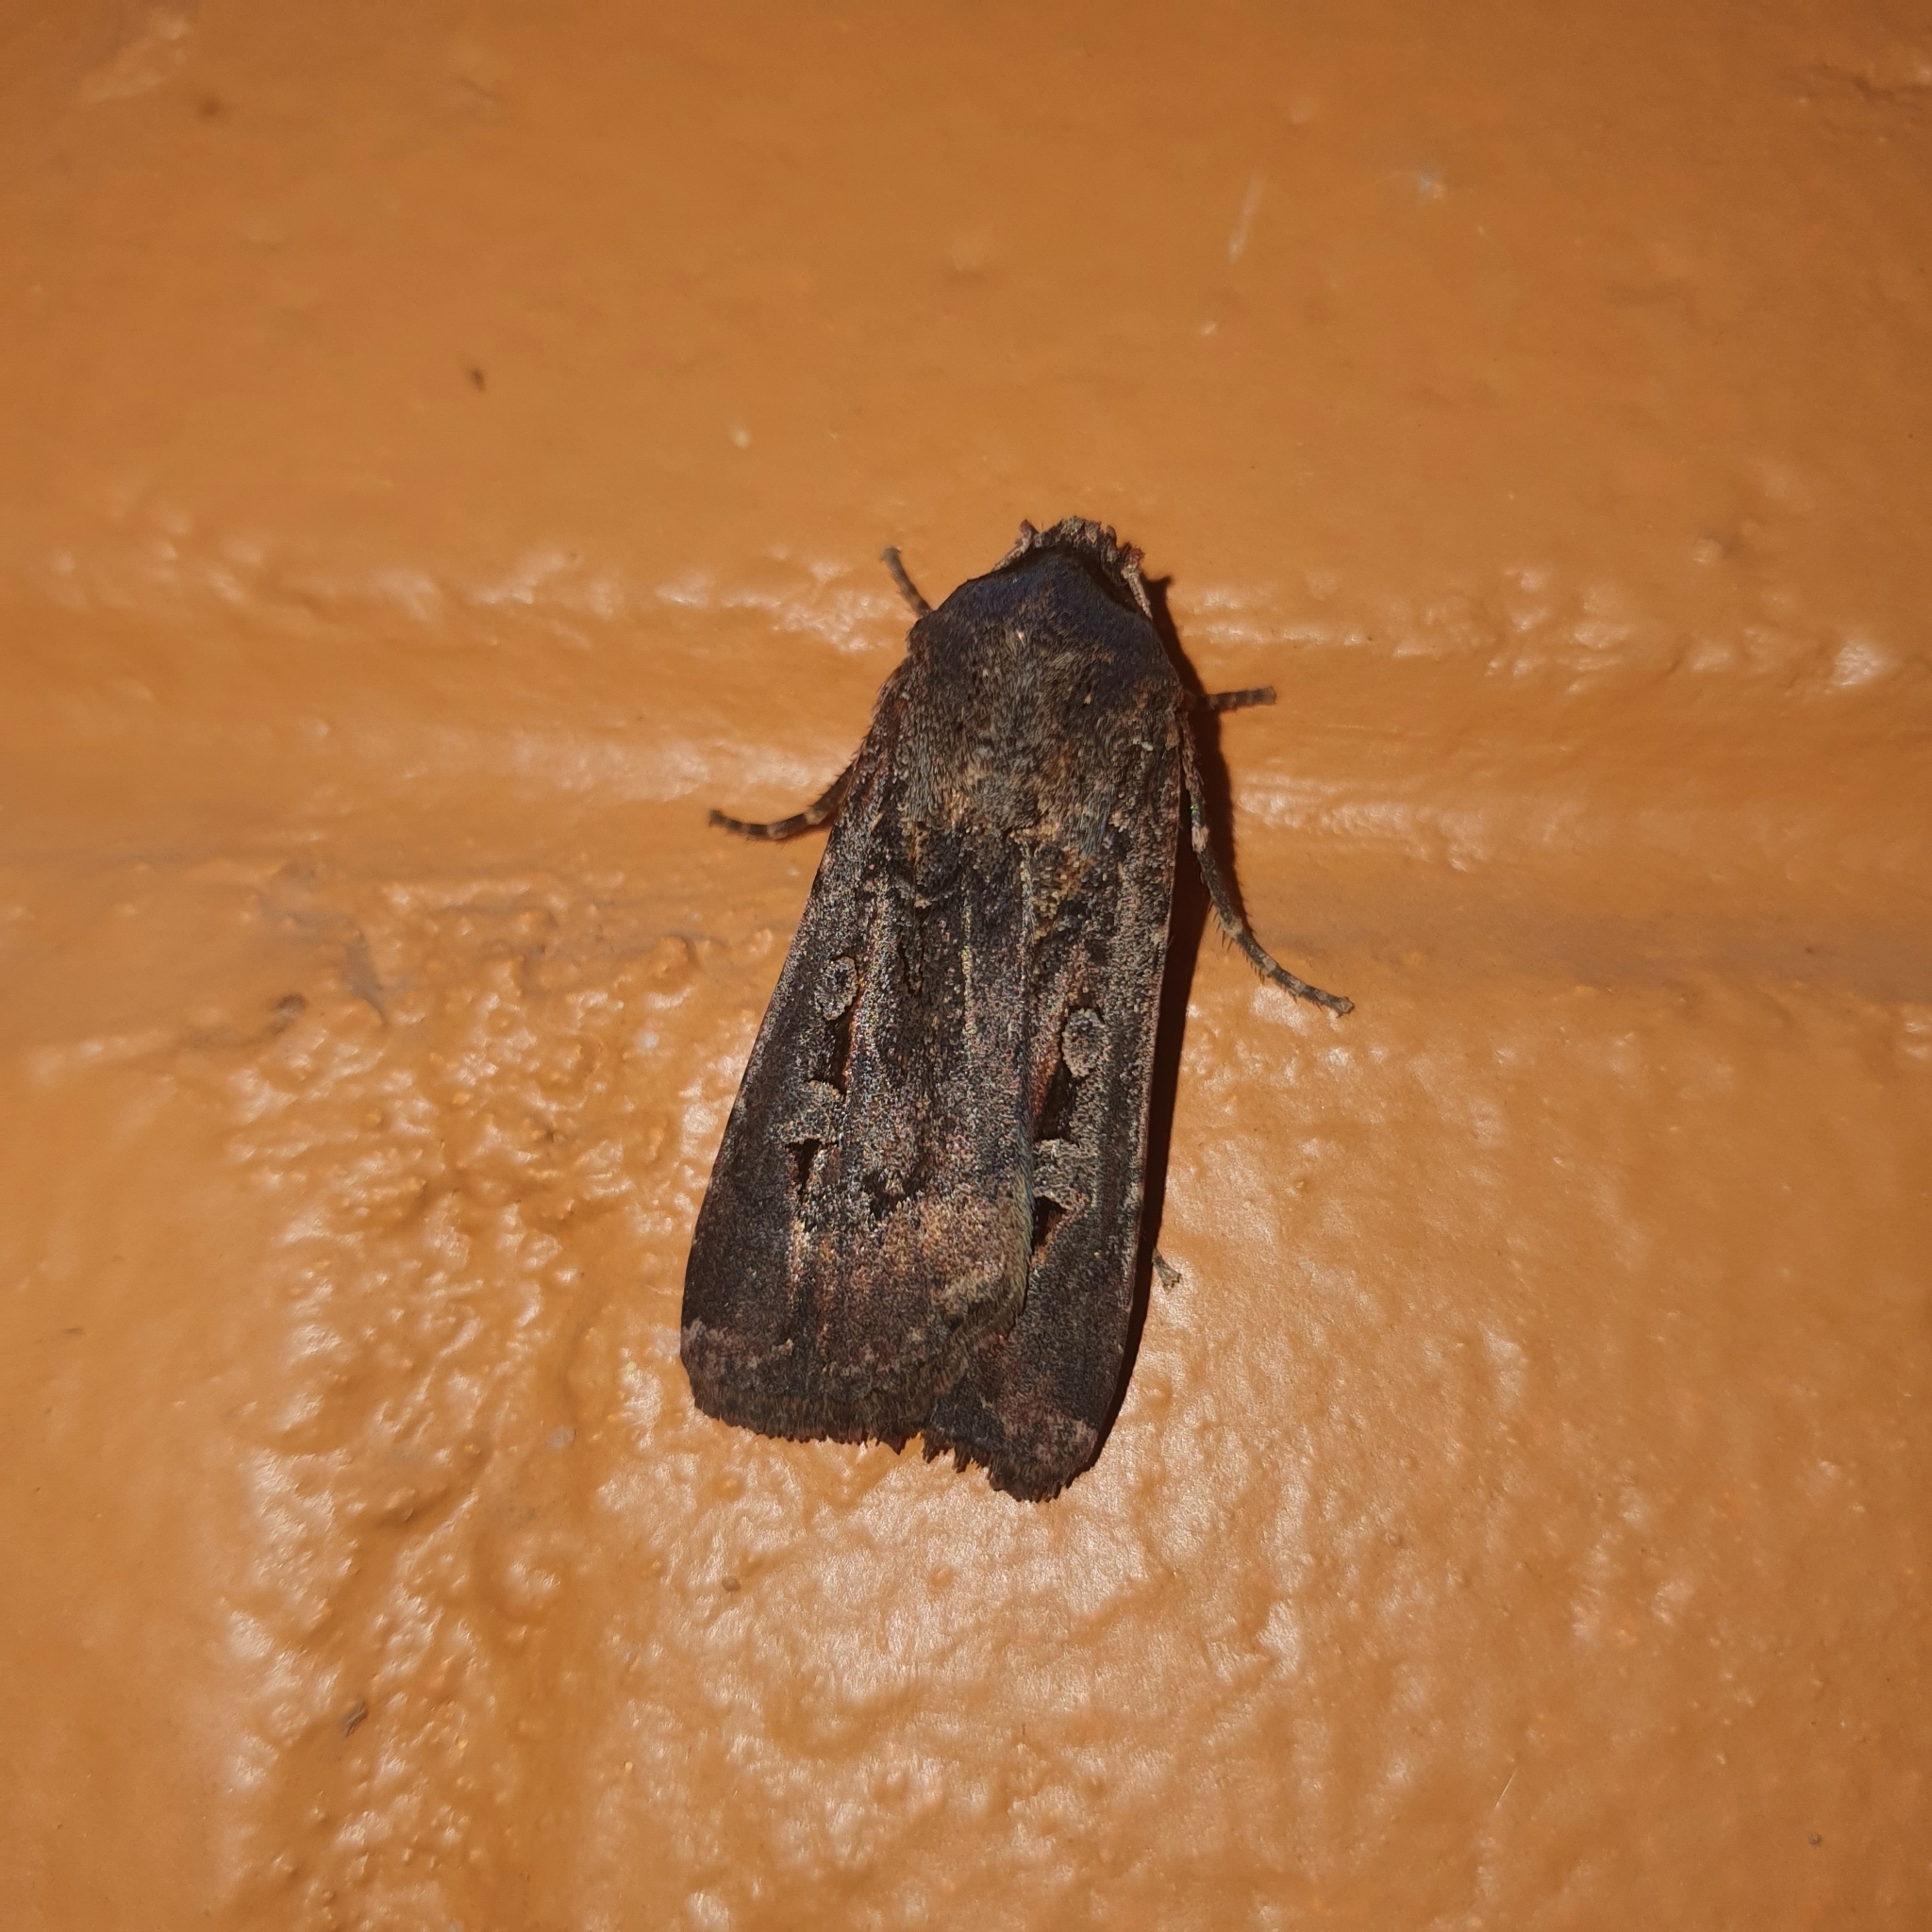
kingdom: Animalia
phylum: Arthropoda
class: Insecta
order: Lepidoptera
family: Noctuidae
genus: Agrotis
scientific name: Agrotis infusa
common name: Bogong moth
